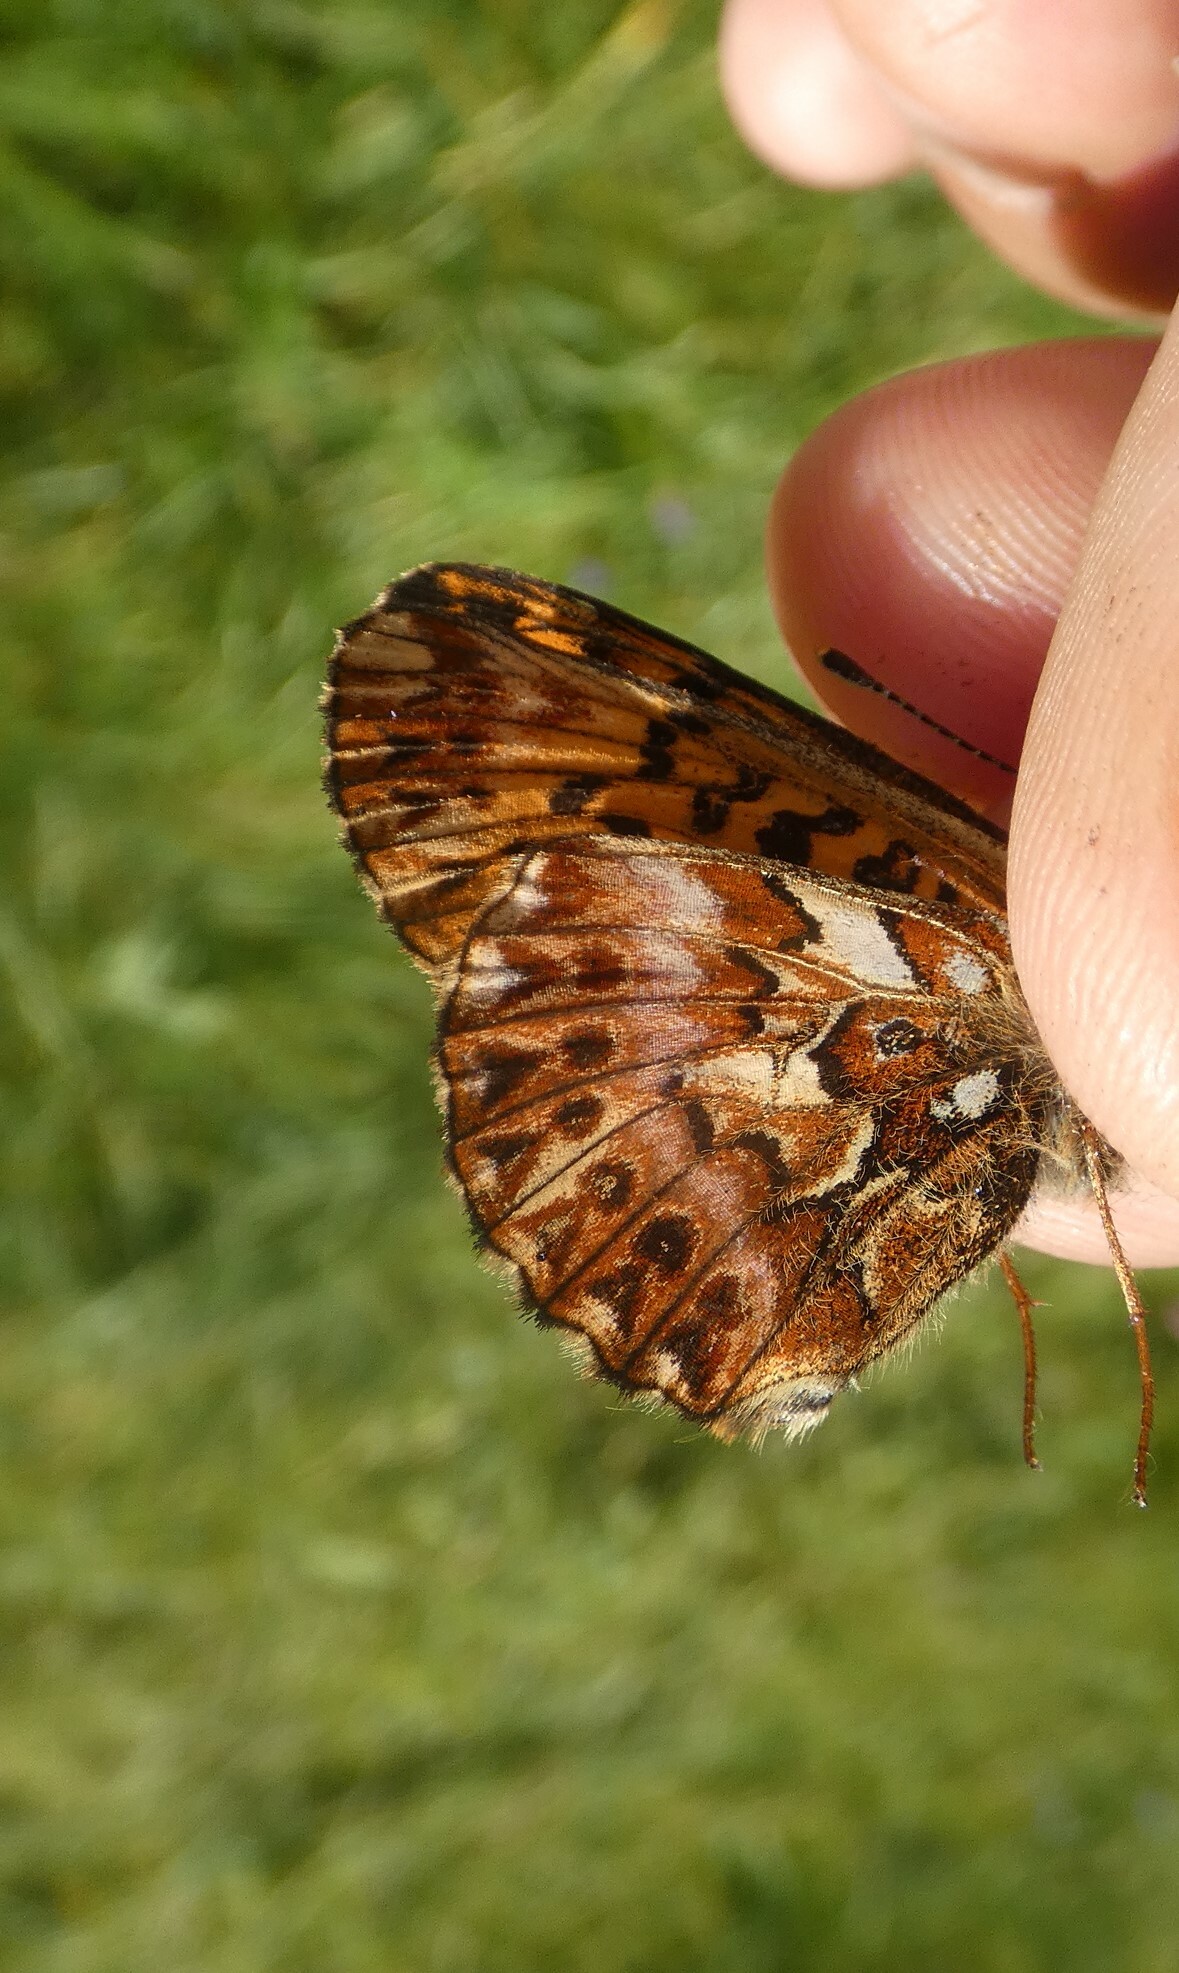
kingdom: Animalia
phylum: Arthropoda
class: Insecta
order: Lepidoptera
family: Nymphalidae
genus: Boloria
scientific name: Boloria titania
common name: Titania's fritillary
